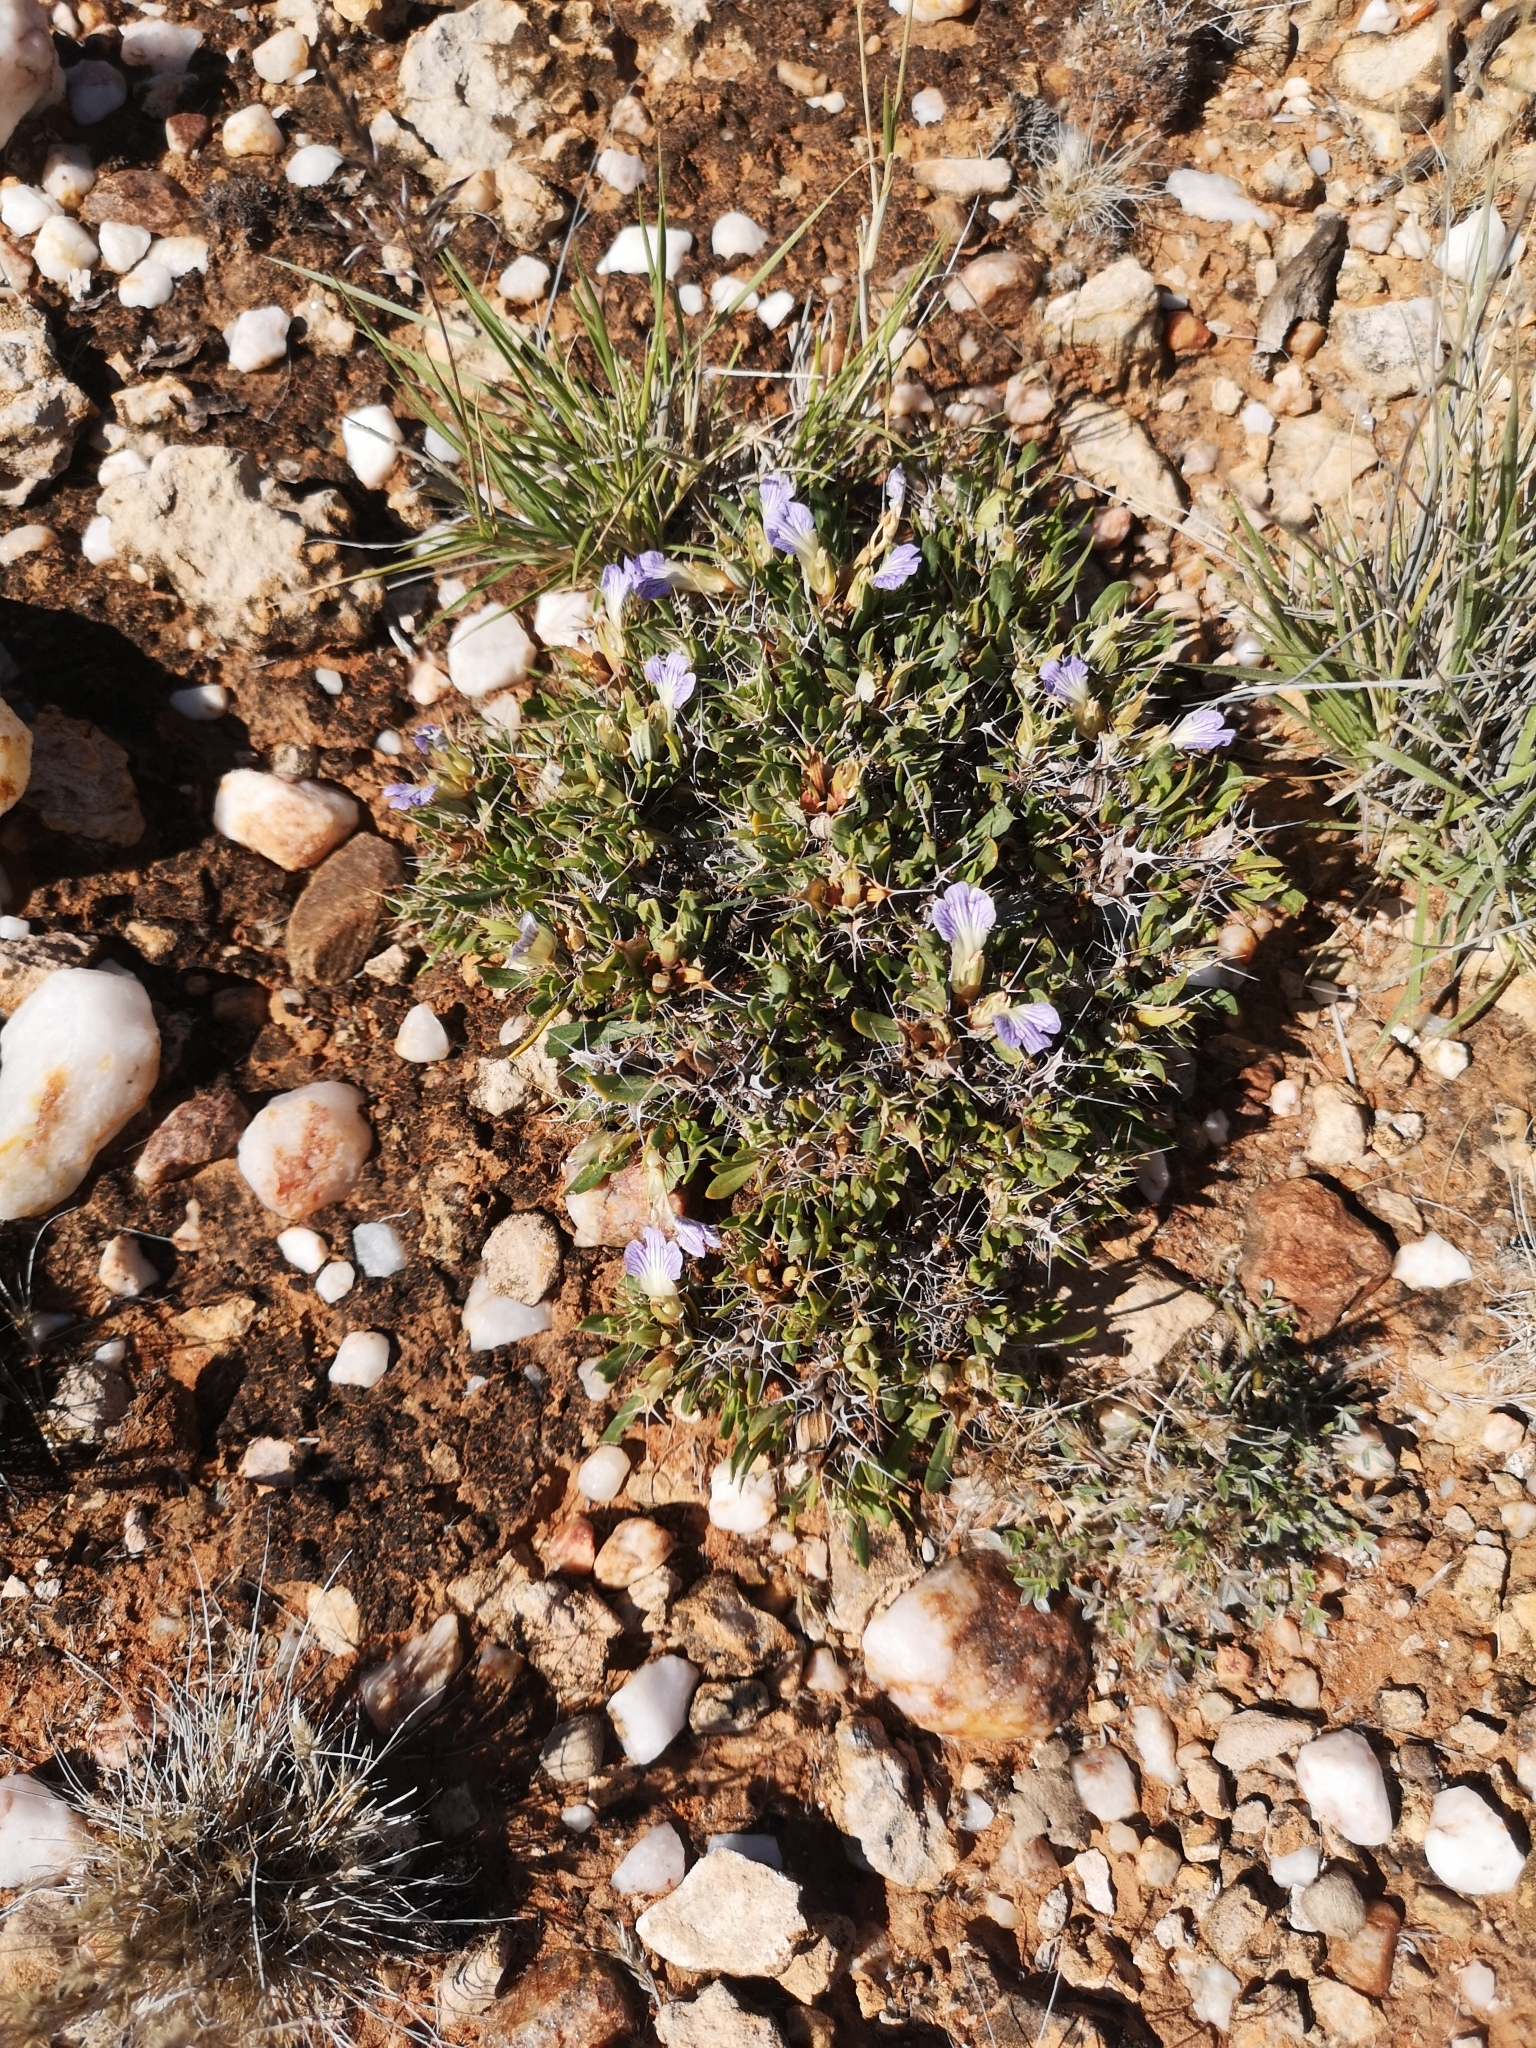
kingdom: Plantae
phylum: Tracheophyta
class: Magnoliopsida
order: Lamiales
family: Acanthaceae
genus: Blepharis
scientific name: Blepharis mitrata
